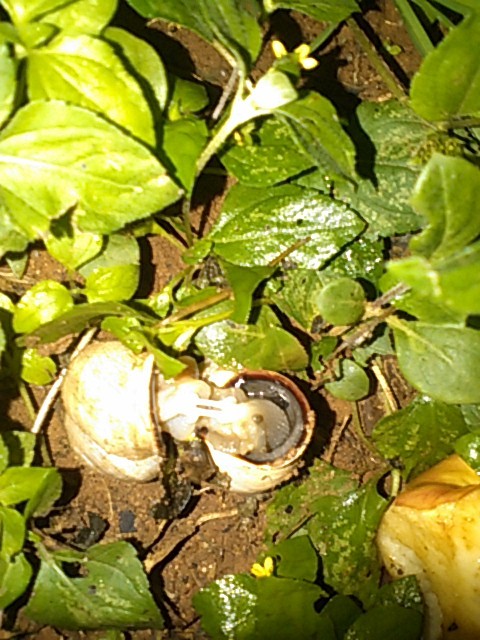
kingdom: Animalia
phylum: Mollusca
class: Gastropoda
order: Stylommatophora
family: Helicidae
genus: Otala
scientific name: Otala lactea
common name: Milk snail
